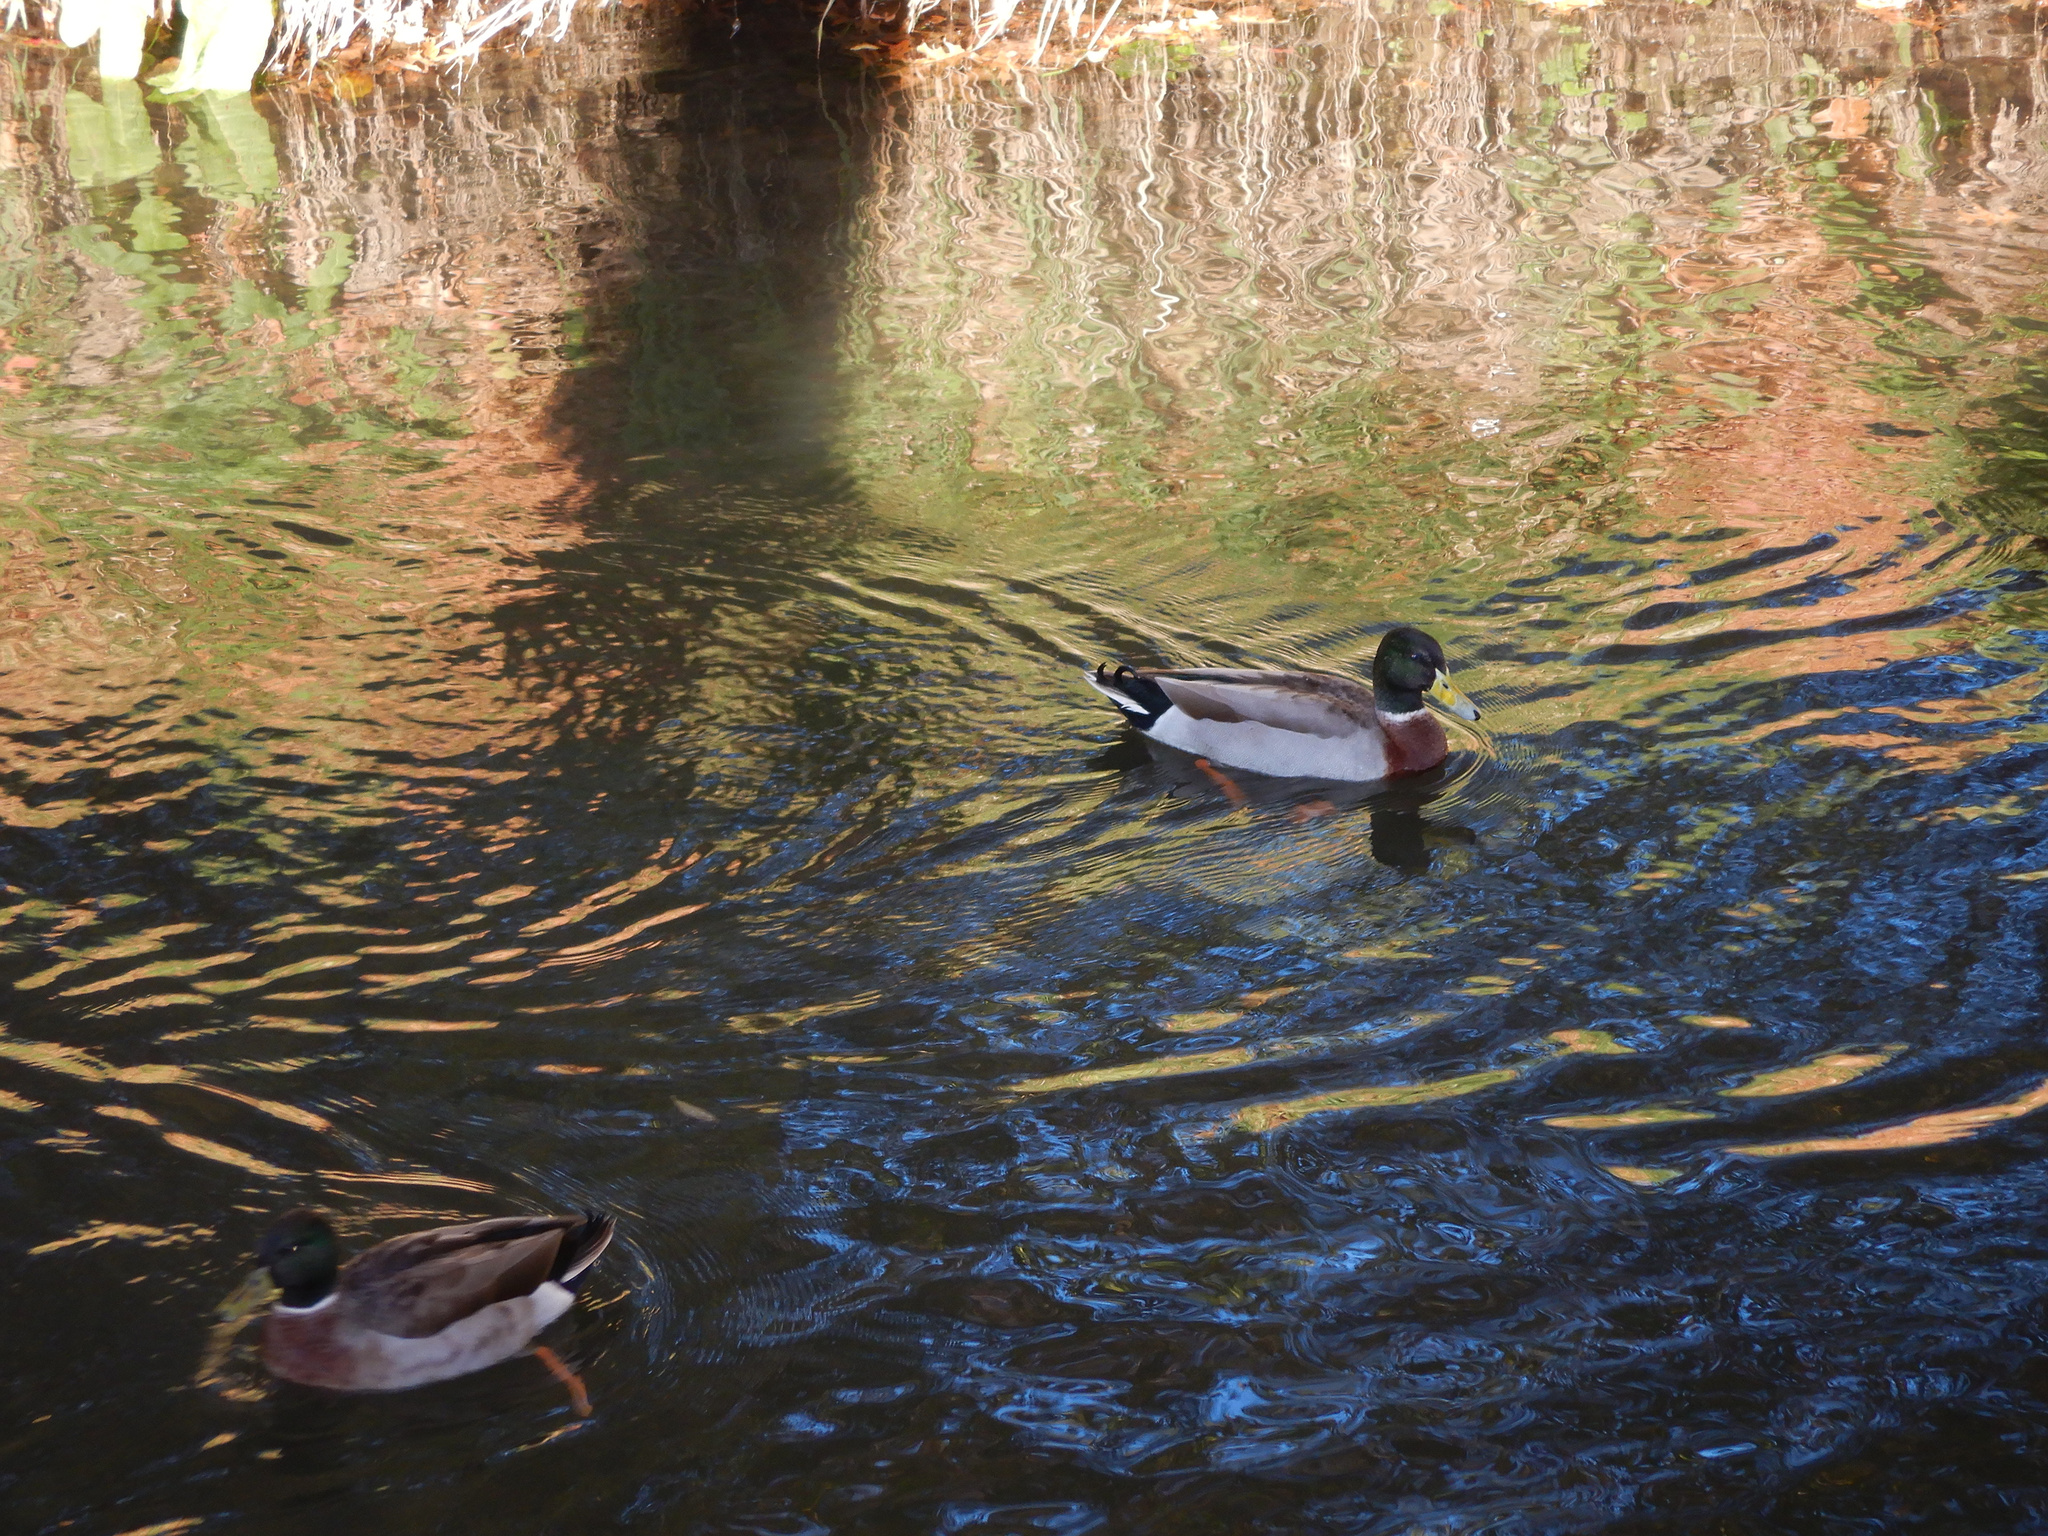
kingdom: Animalia
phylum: Chordata
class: Aves
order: Anseriformes
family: Anatidae
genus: Anas
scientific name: Anas platyrhynchos
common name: Mallard
